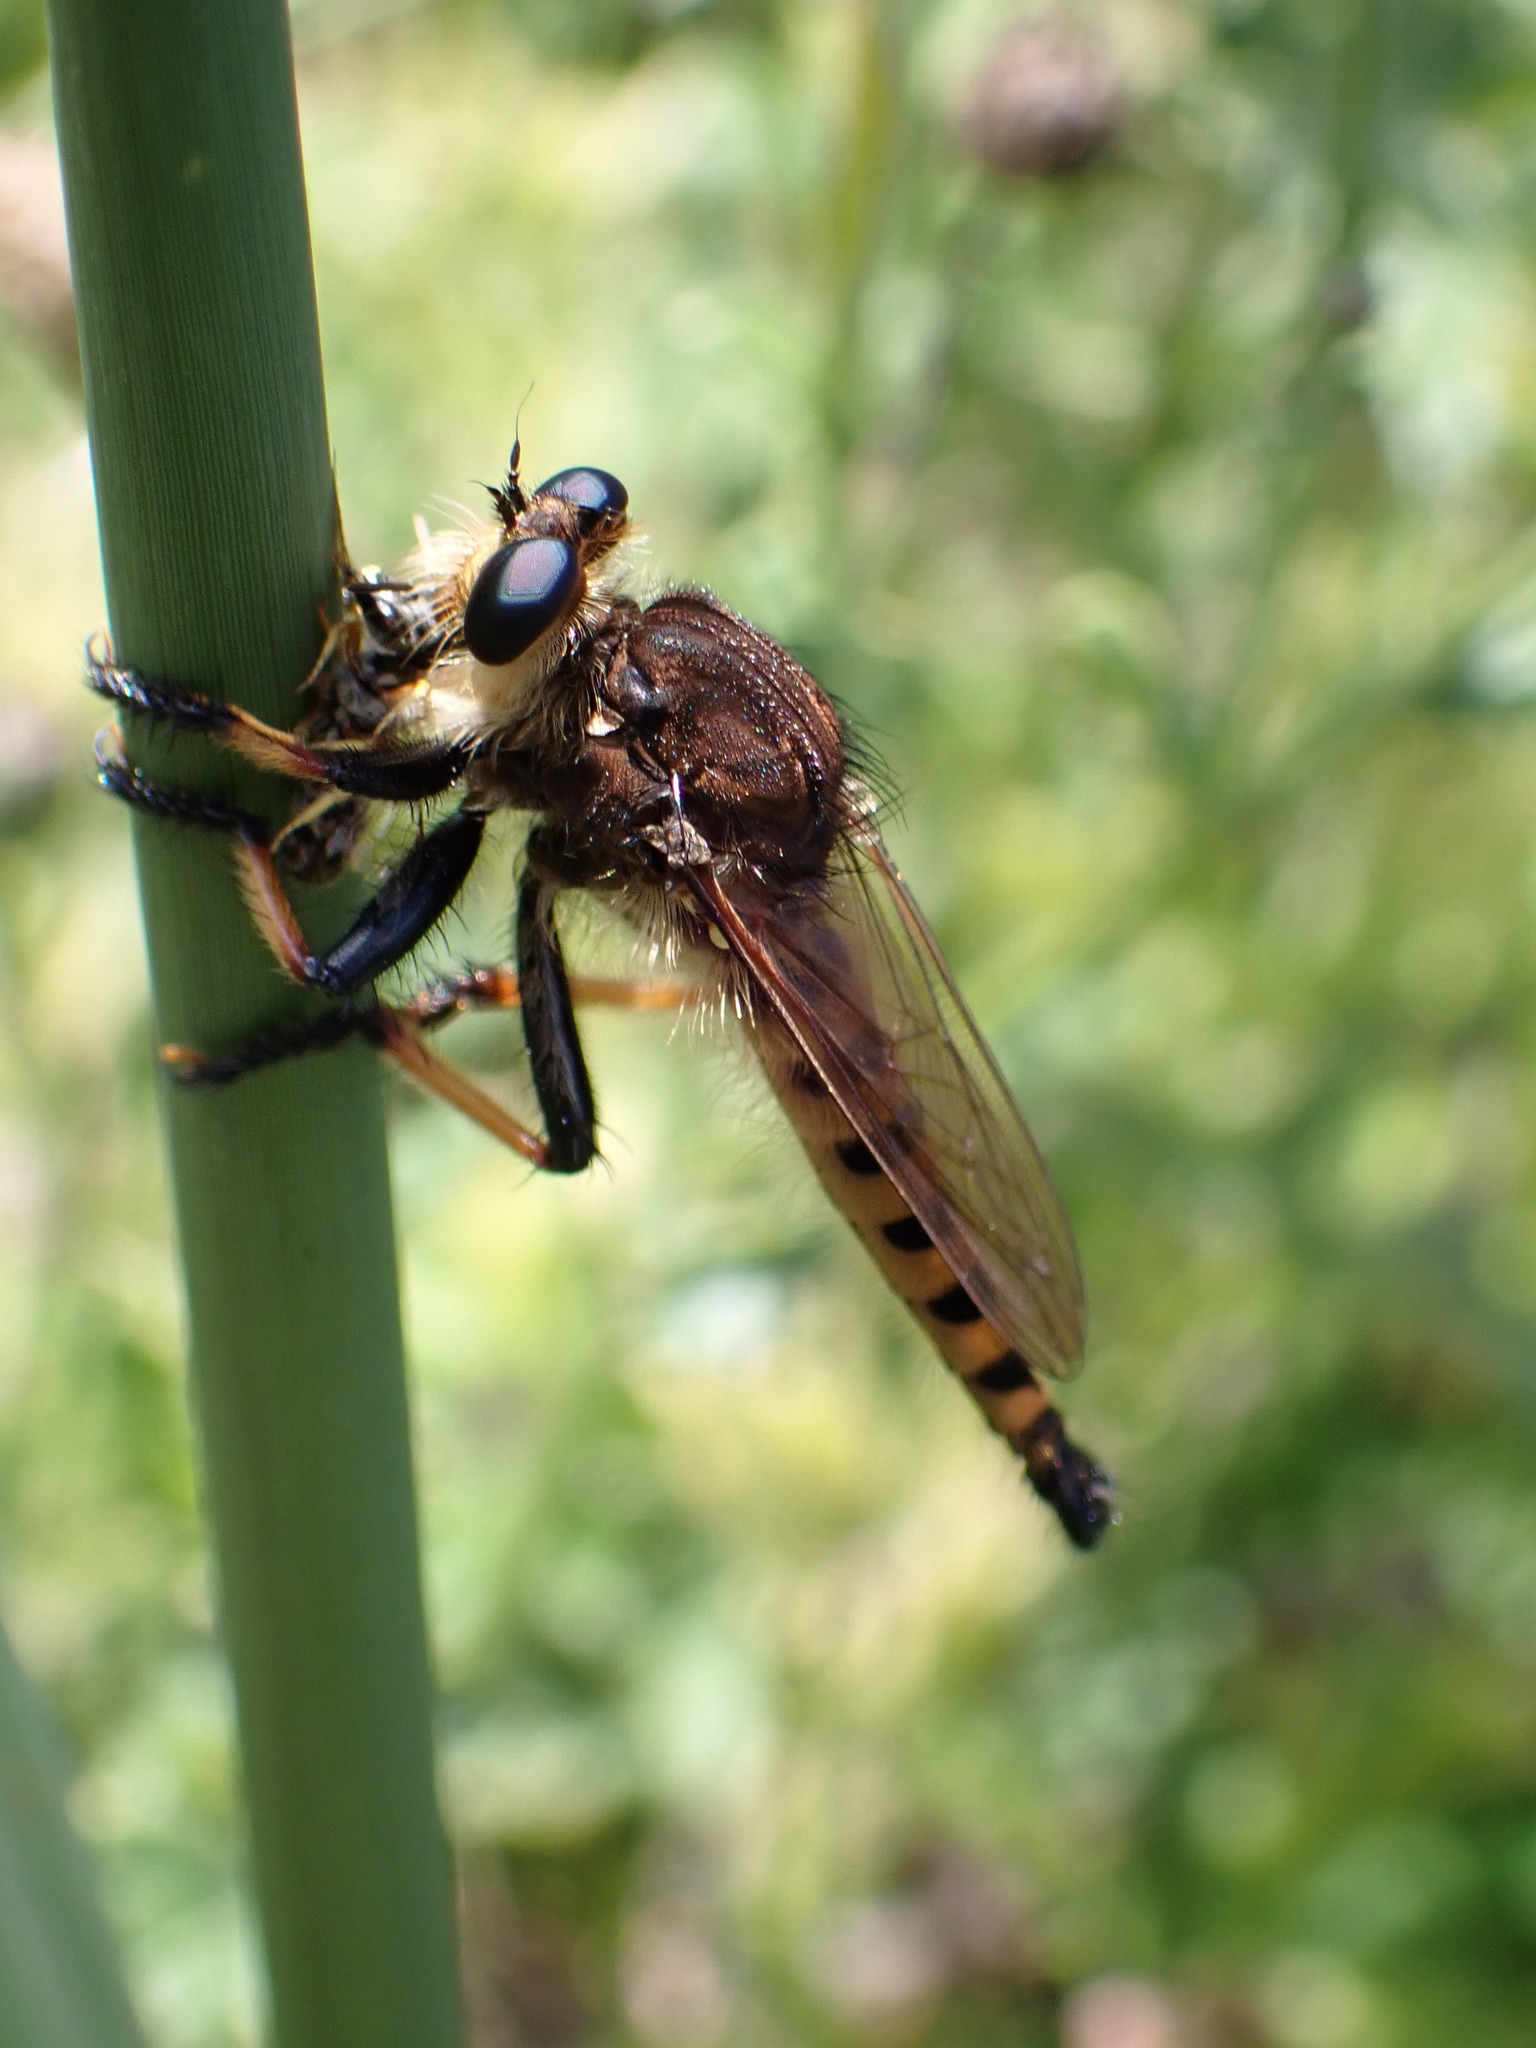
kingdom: Animalia
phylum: Arthropoda
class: Insecta
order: Diptera
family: Asilidae
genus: Promachus
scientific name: Promachus rufipes
